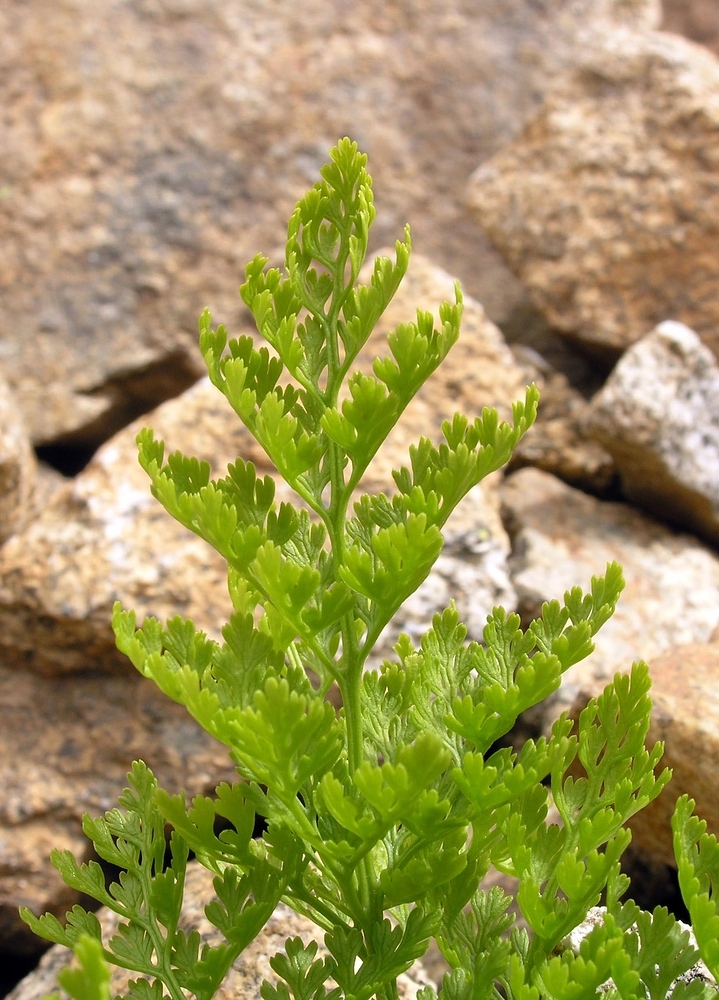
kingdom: Plantae
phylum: Tracheophyta
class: Polypodiopsida
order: Polypodiales
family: Pteridaceae
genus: Cryptogramma
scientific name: Cryptogramma crispa
